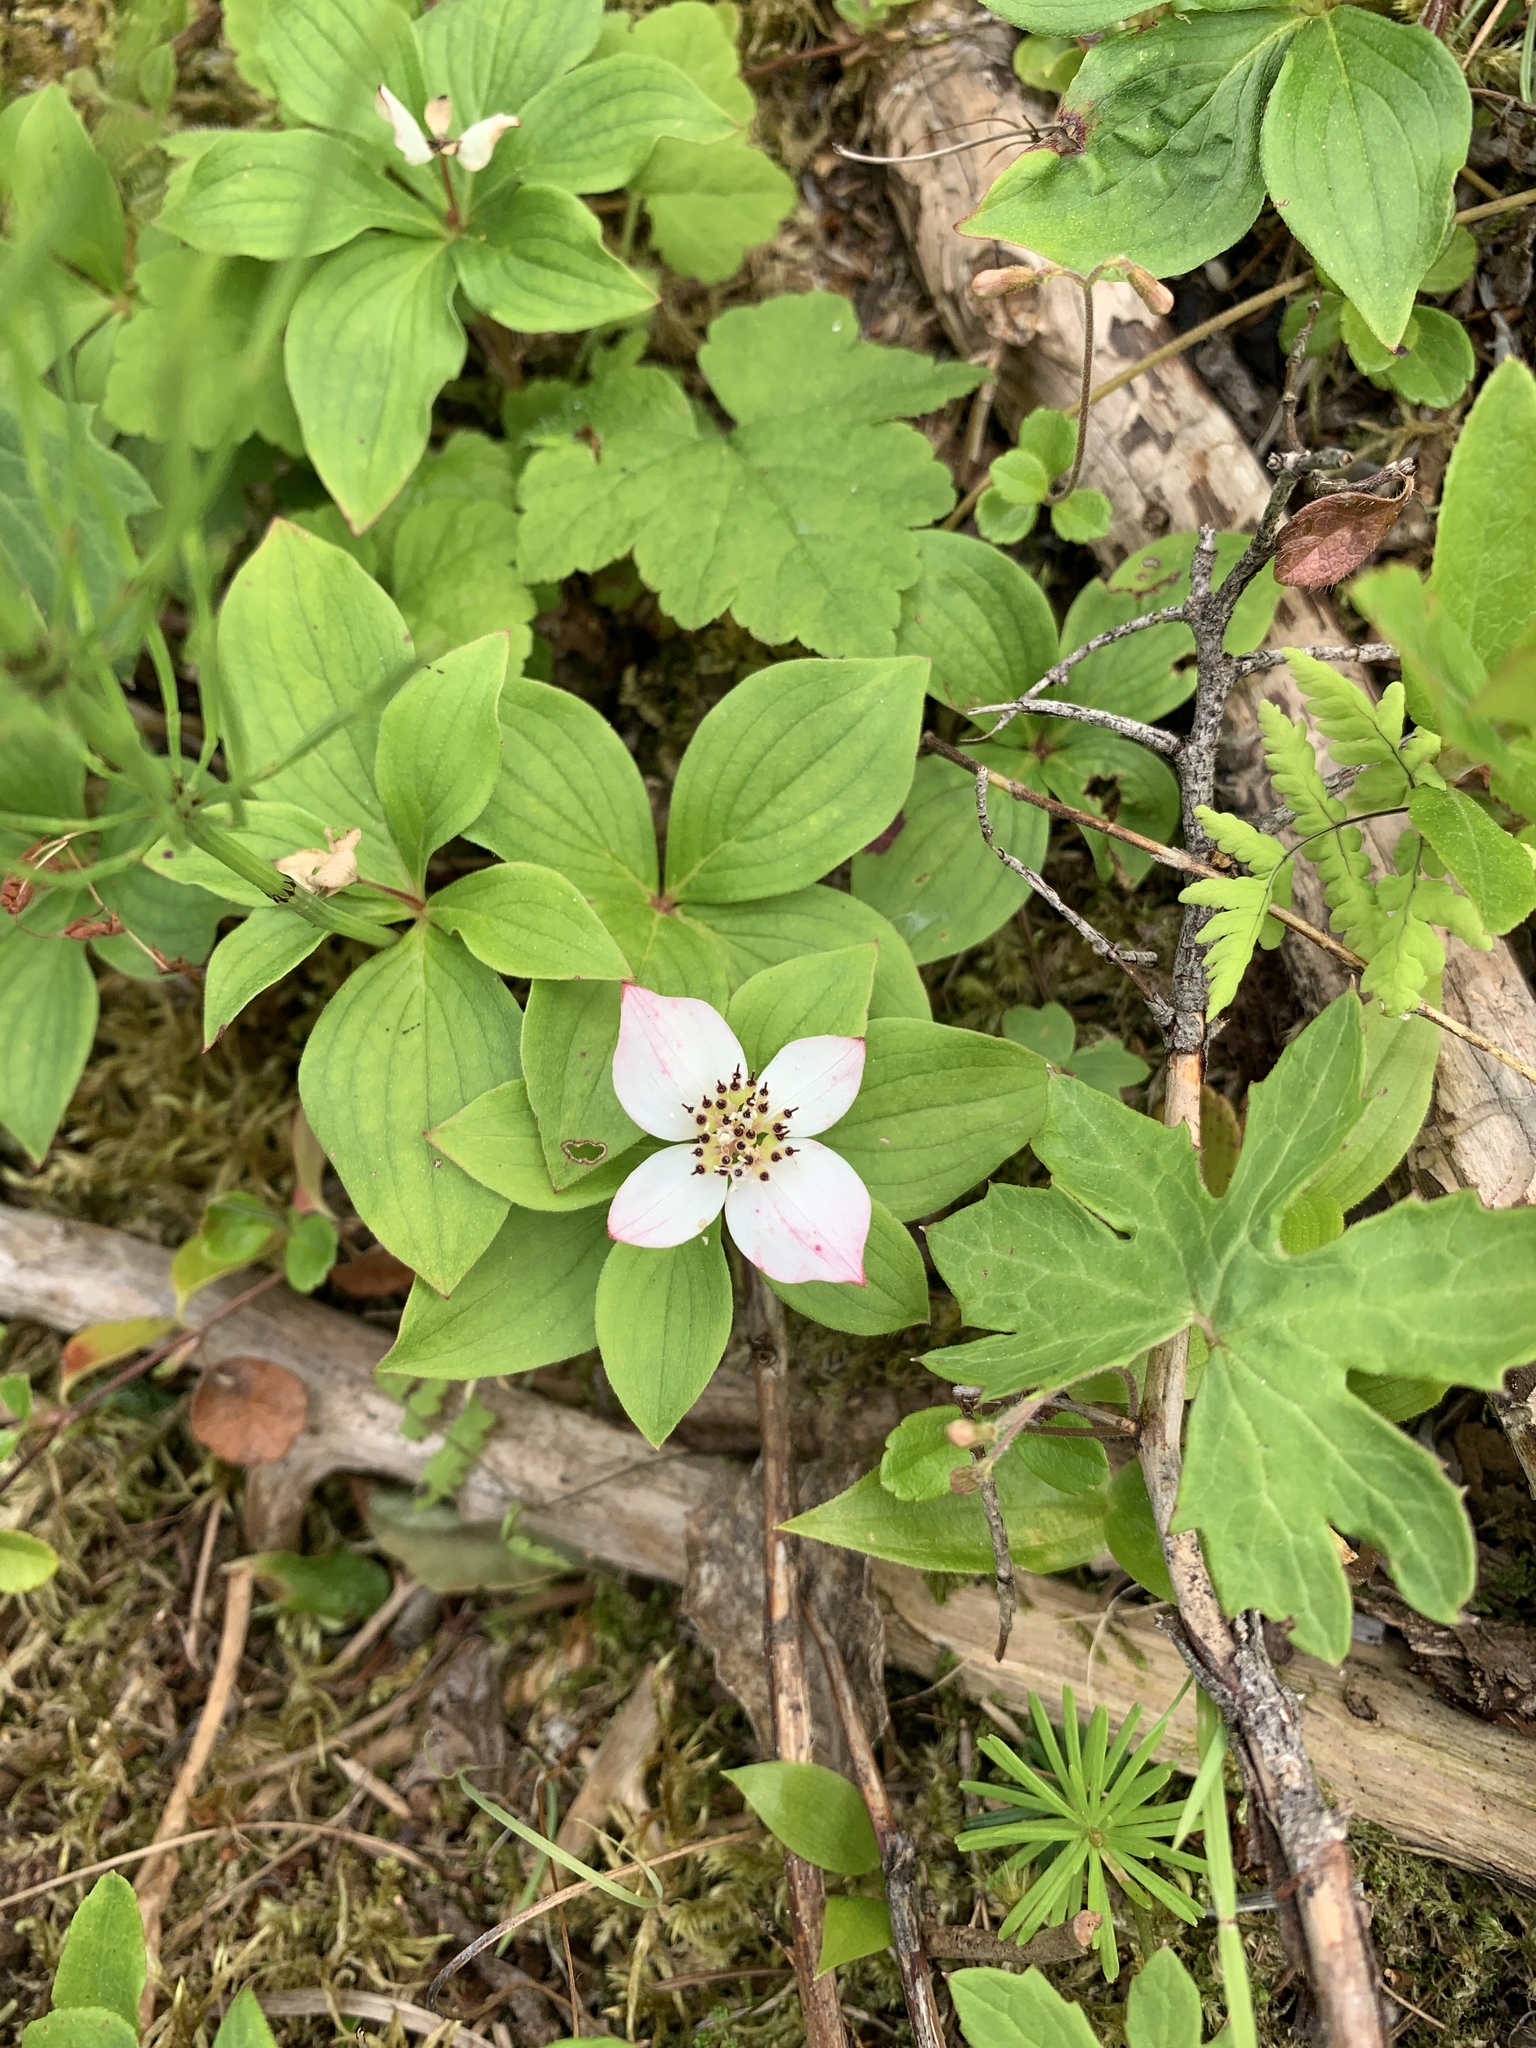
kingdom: Plantae
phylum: Tracheophyta
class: Magnoliopsida
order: Cornales
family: Cornaceae
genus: Cornus
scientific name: Cornus canadensis
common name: Creeping dogwood
